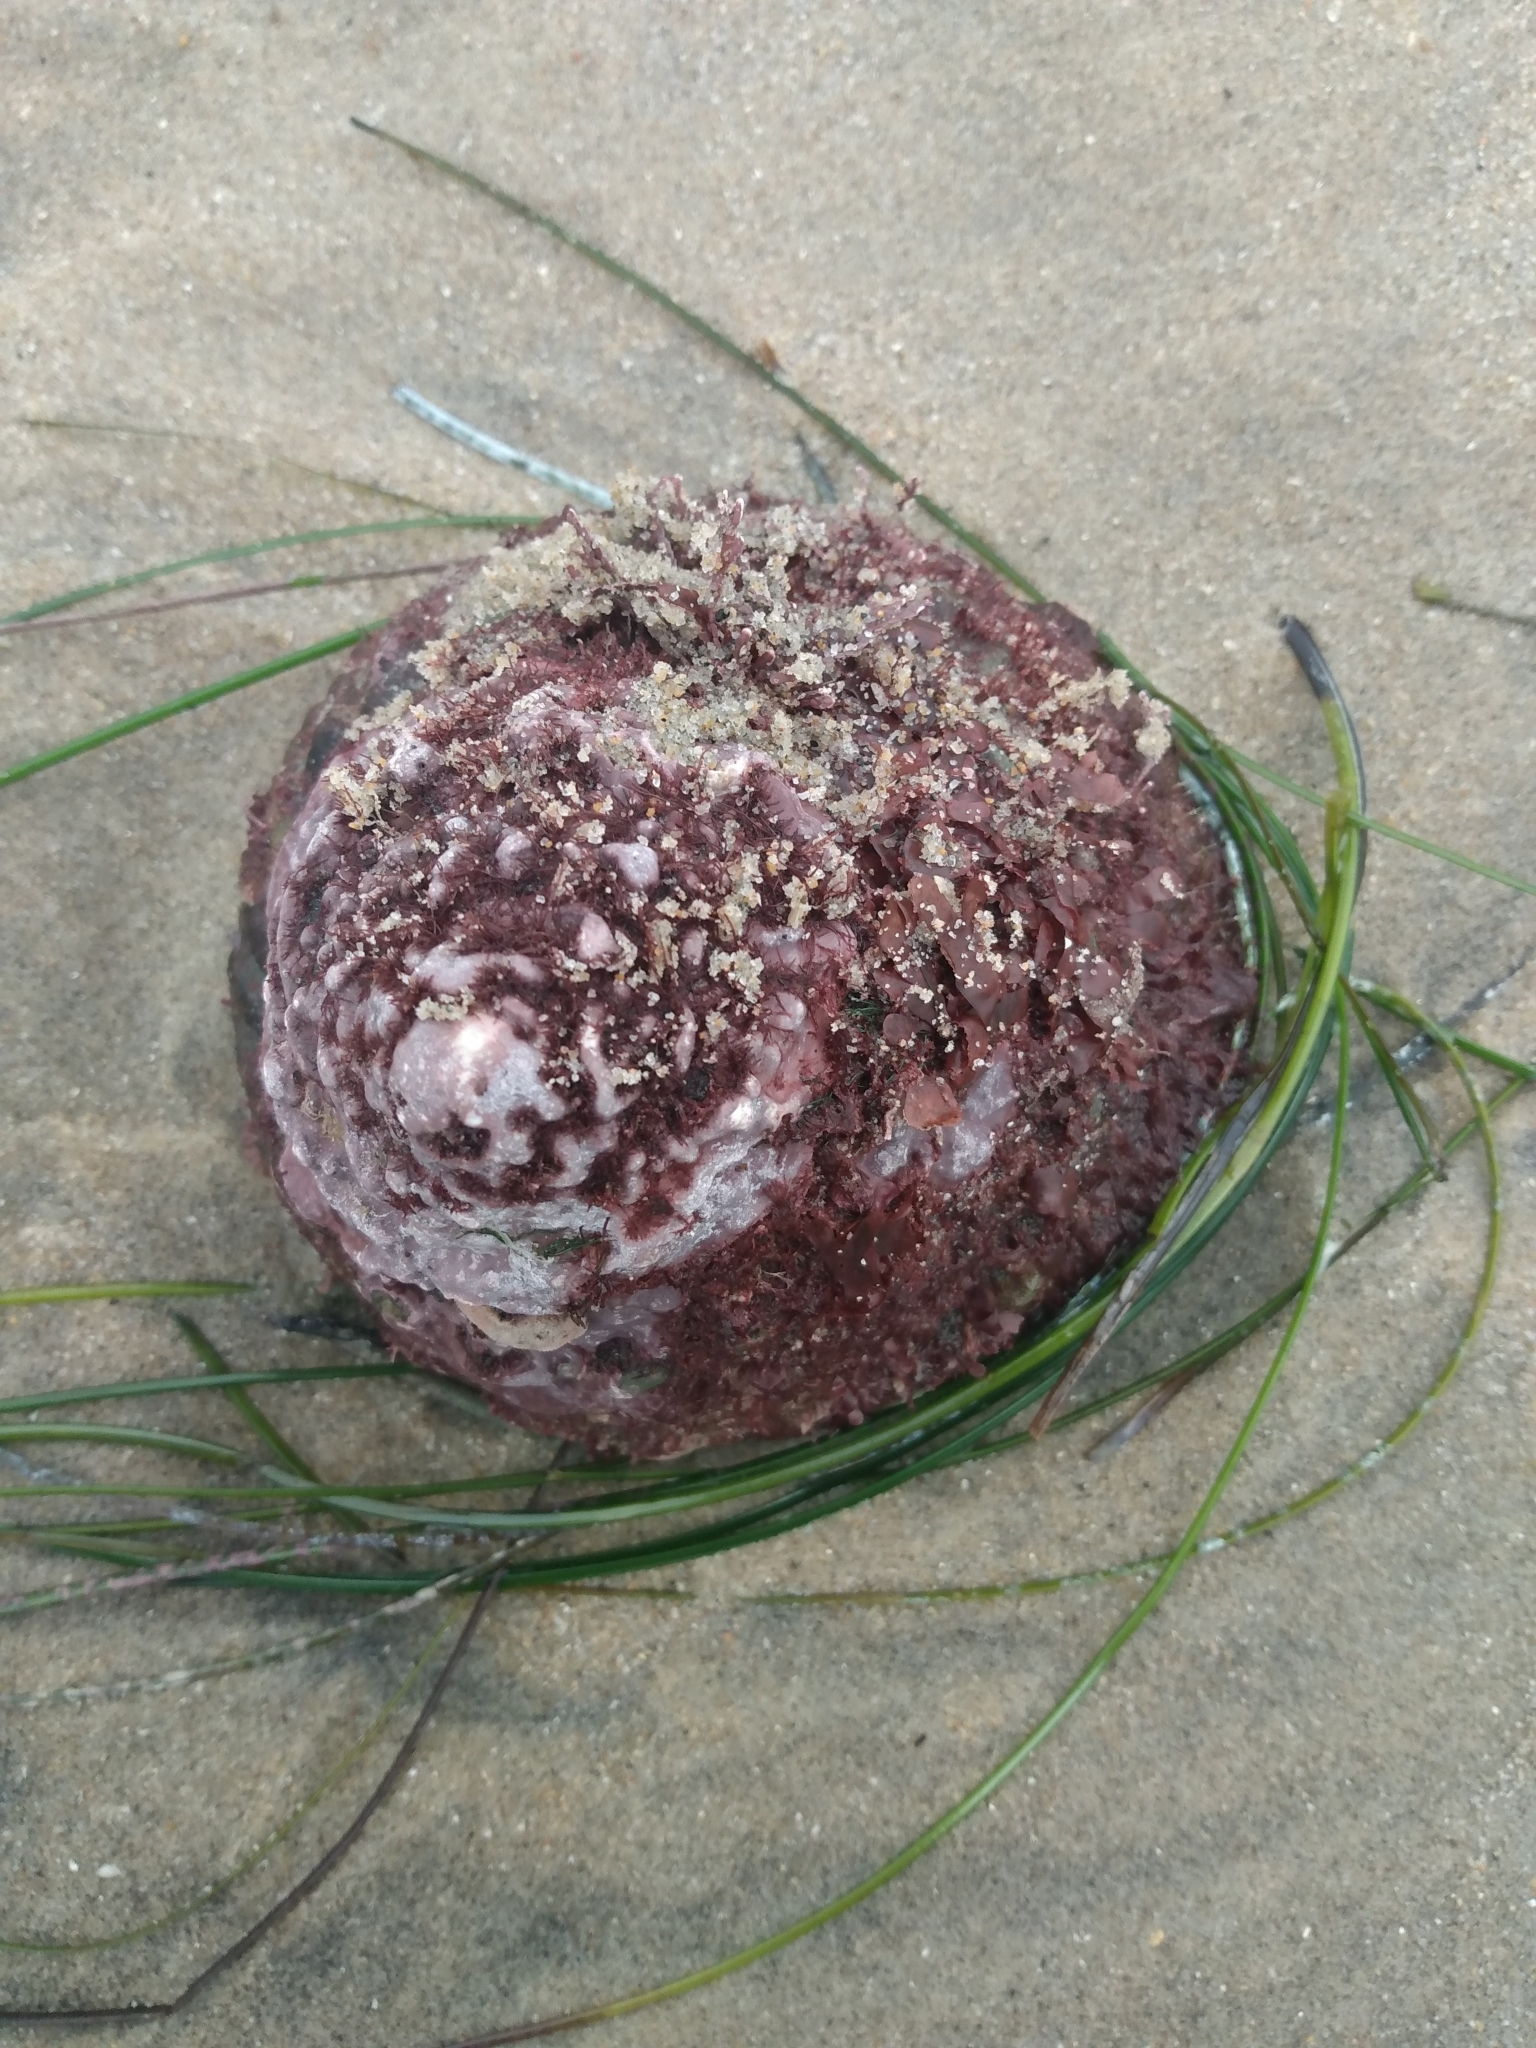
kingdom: Animalia
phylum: Mollusca
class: Gastropoda
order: Trochida
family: Turbinidae
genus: Megastraea
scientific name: Megastraea undosa
